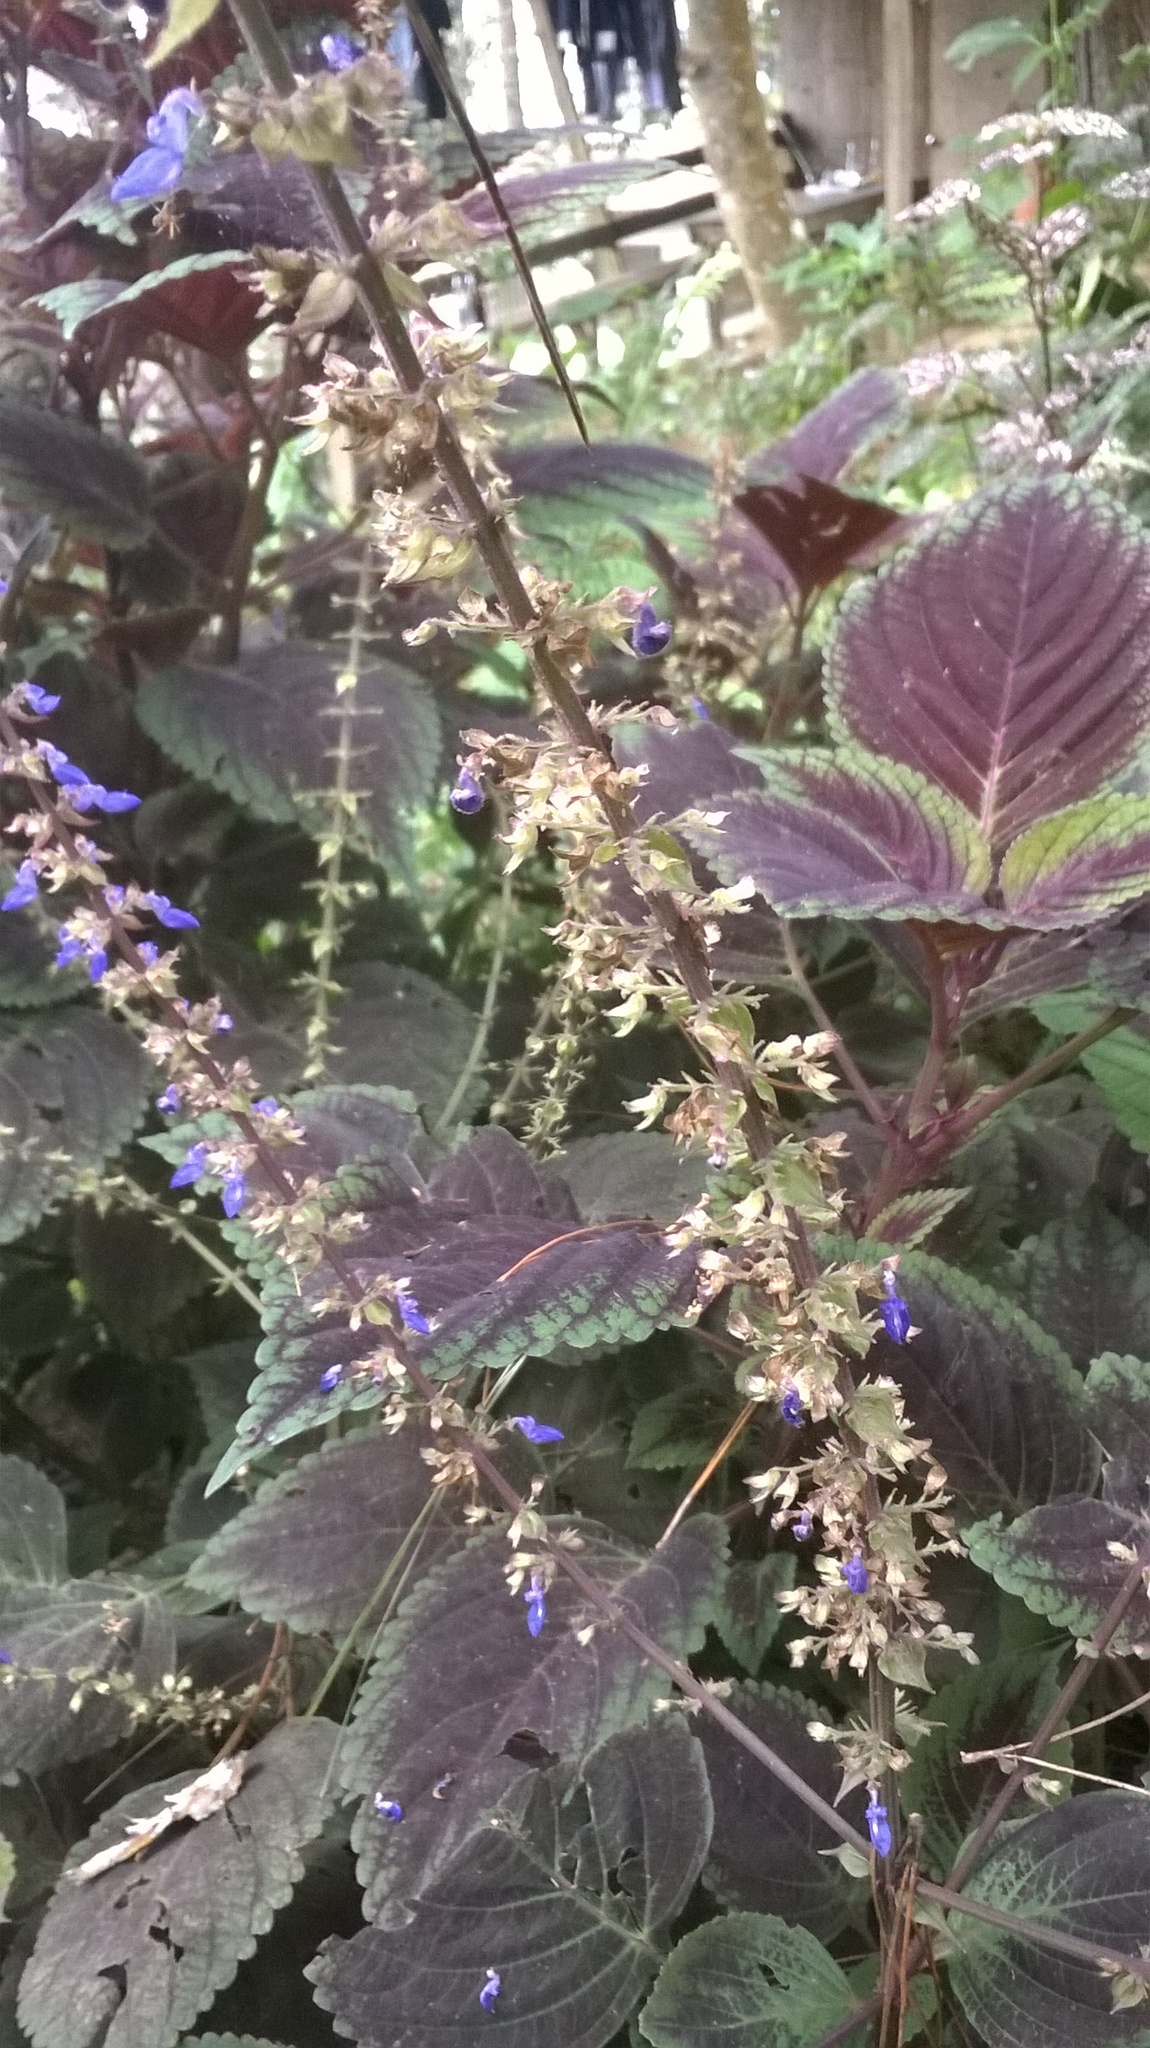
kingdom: Plantae
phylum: Tracheophyta
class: Magnoliopsida
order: Lamiales
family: Lamiaceae
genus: Coleus
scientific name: Coleus scutellarioides
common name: Coleus
